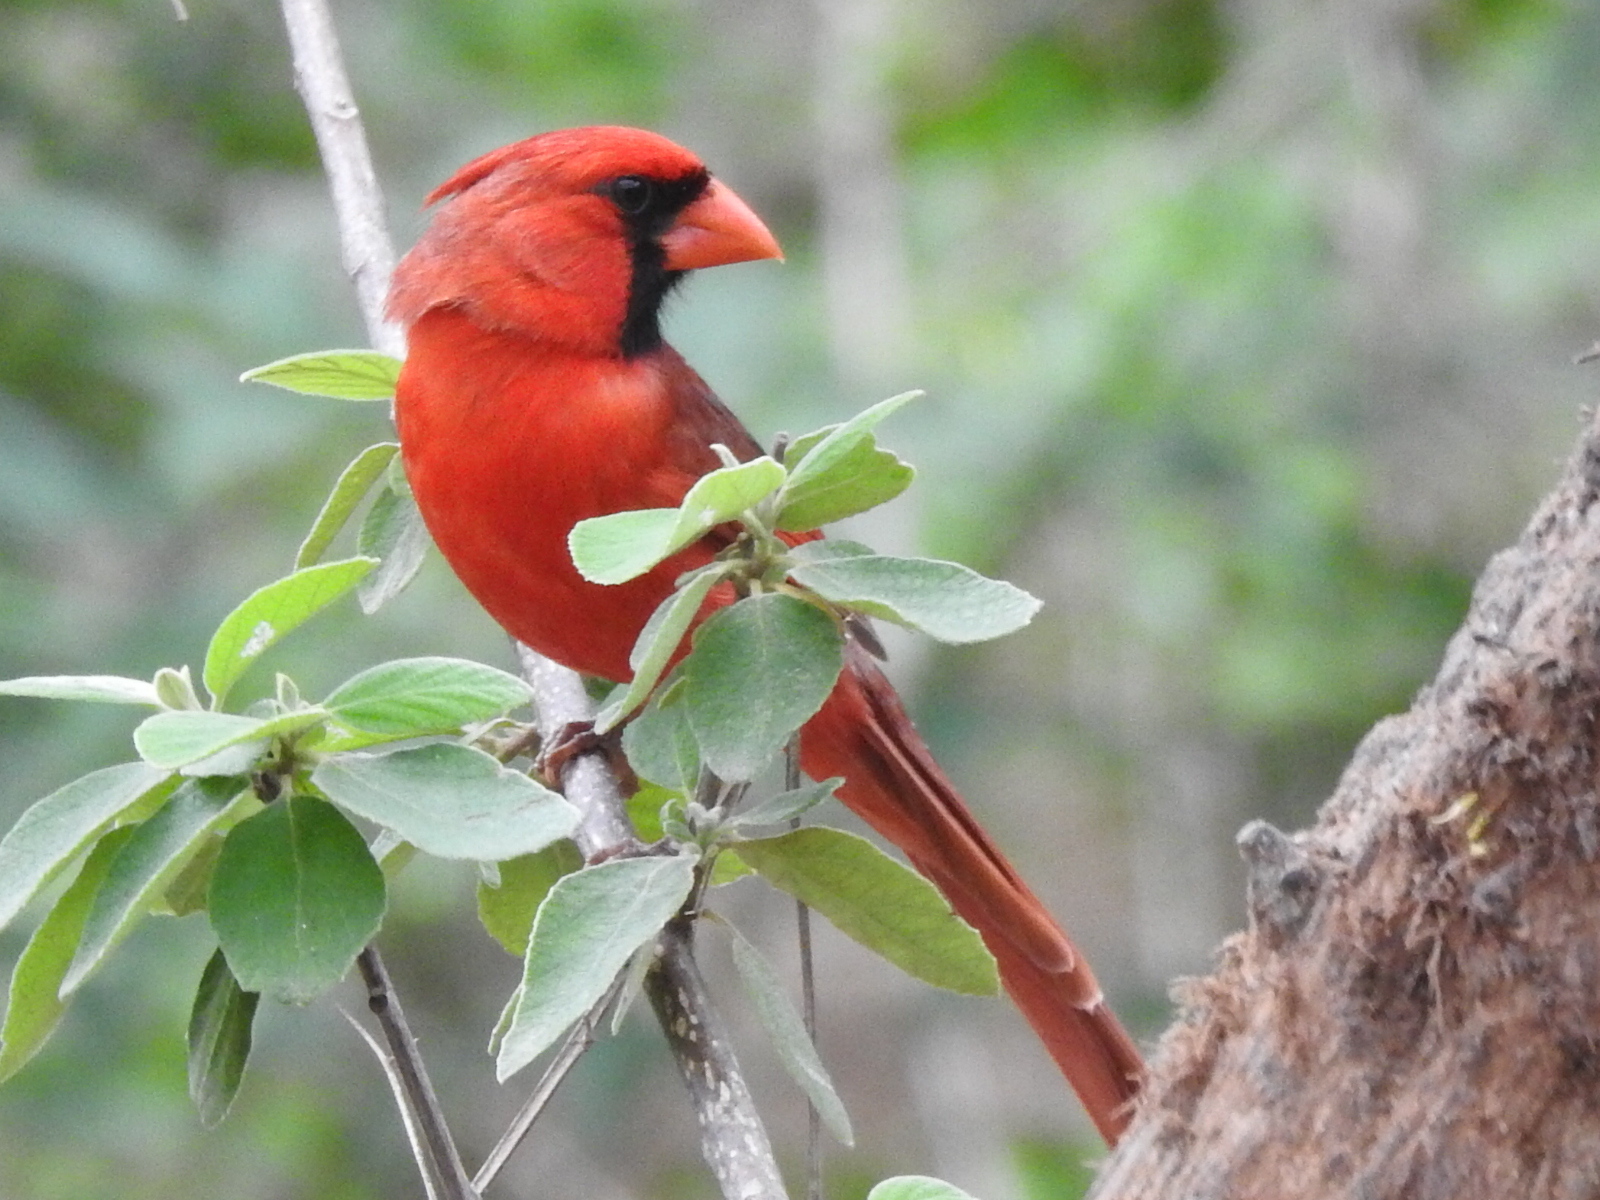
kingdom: Animalia
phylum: Chordata
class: Aves
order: Passeriformes
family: Cardinalidae
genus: Cardinalis
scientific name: Cardinalis cardinalis
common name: Northern cardinal
